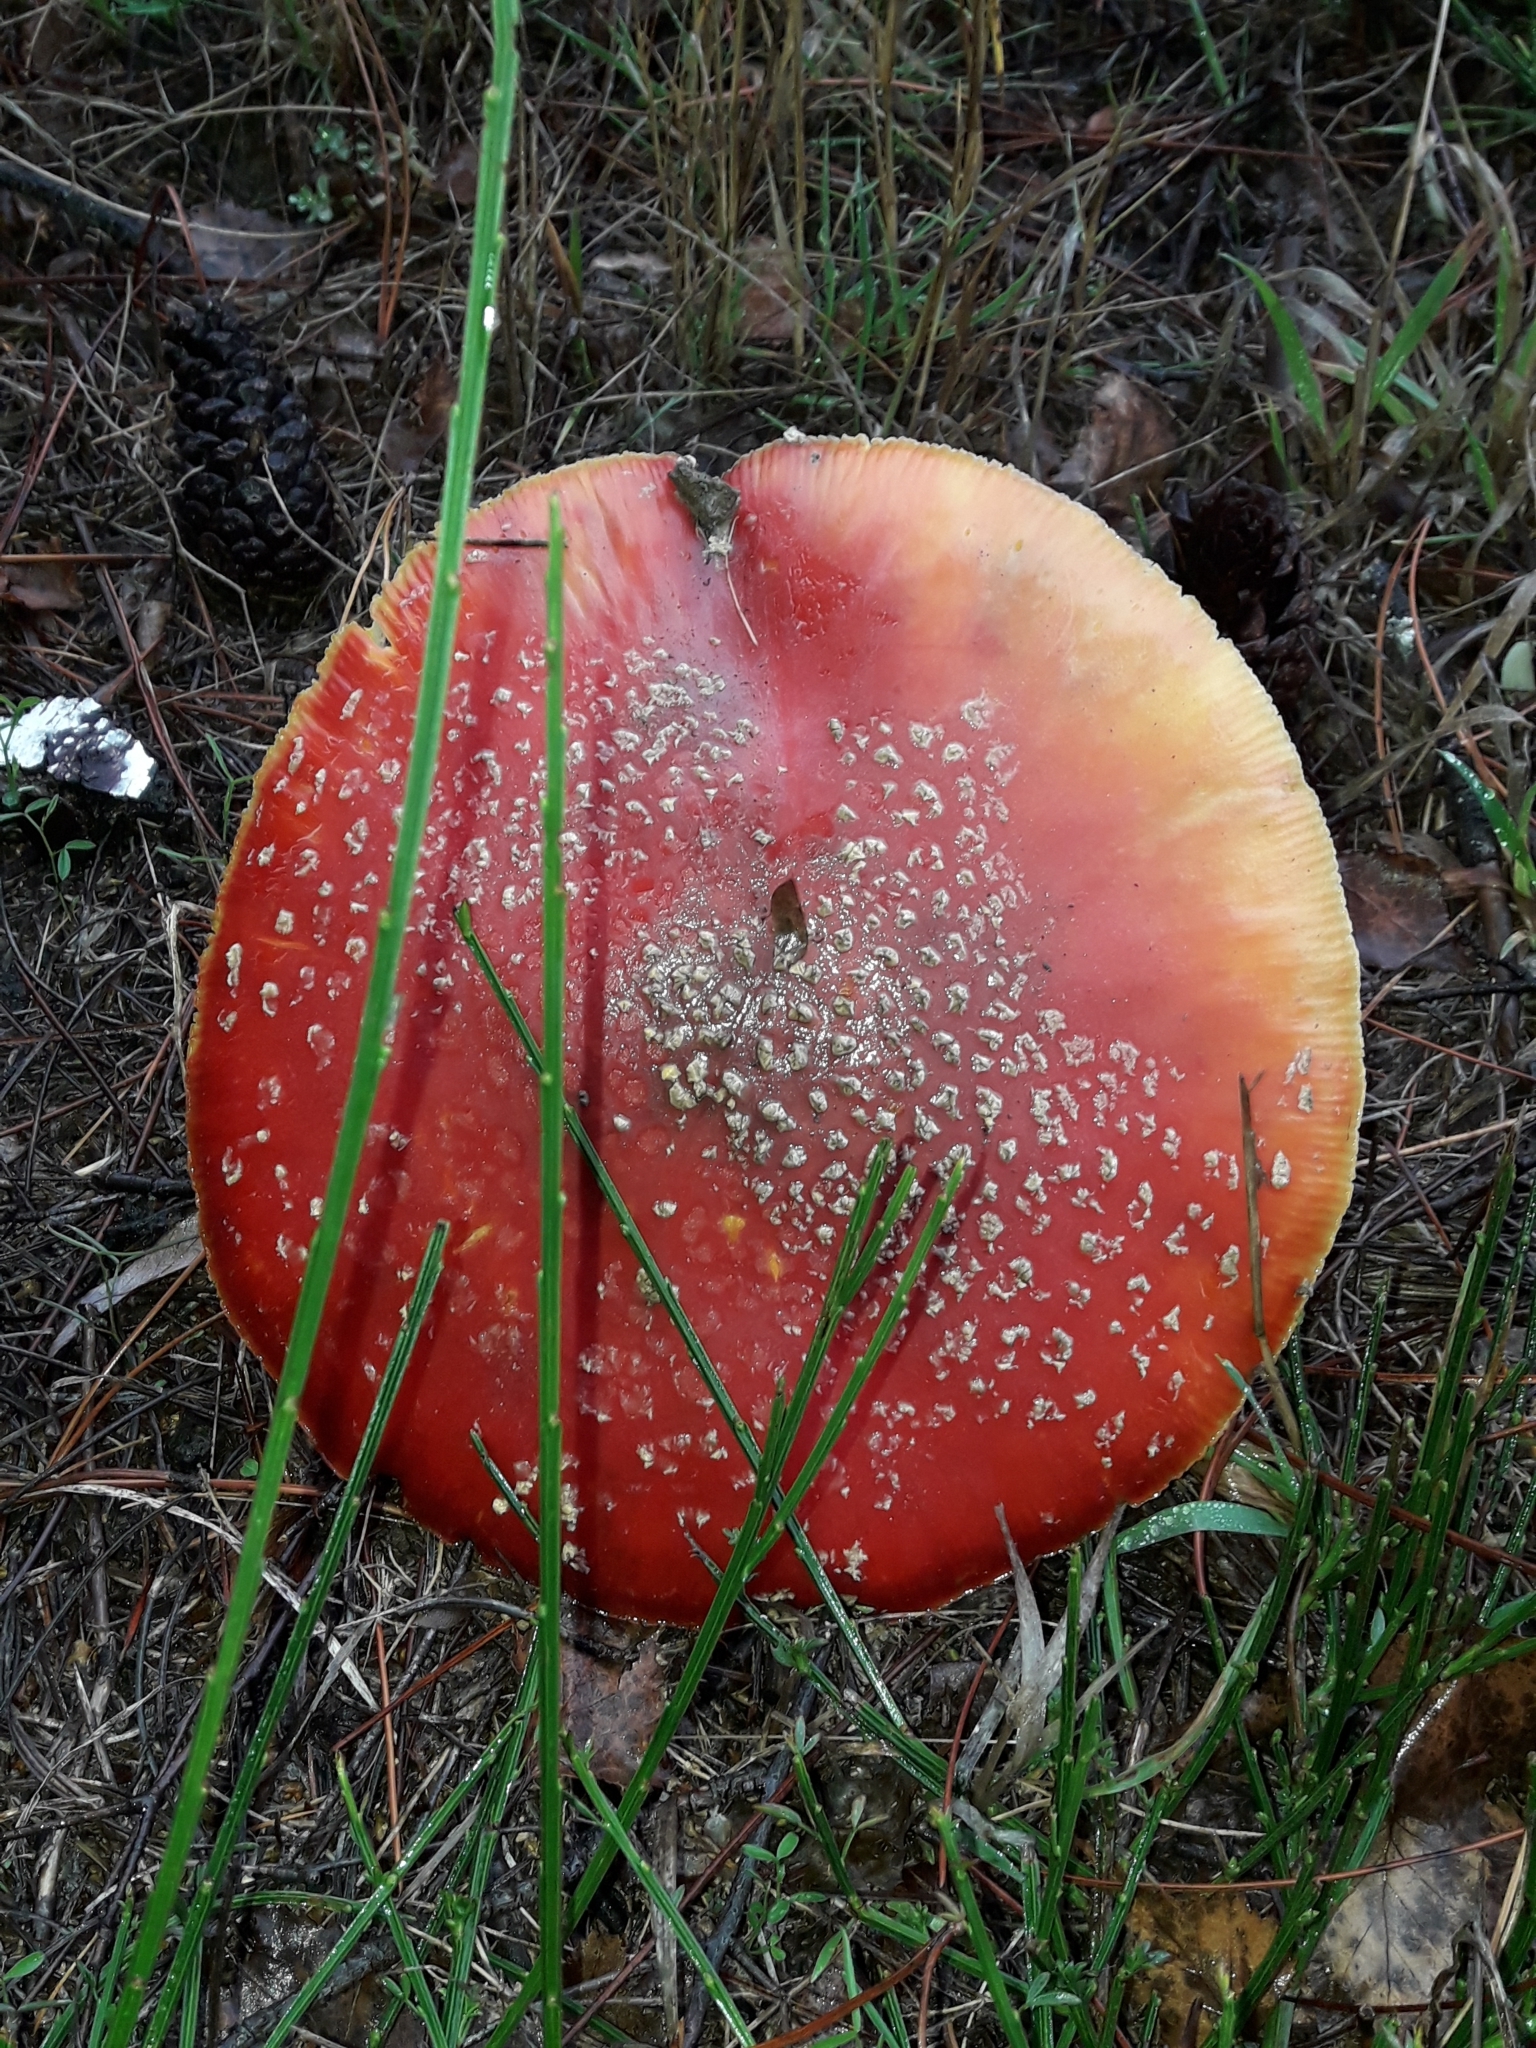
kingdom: Fungi
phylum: Basidiomycota
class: Agaricomycetes
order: Agaricales
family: Amanitaceae
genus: Amanita
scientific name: Amanita muscaria
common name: Fly agaric
